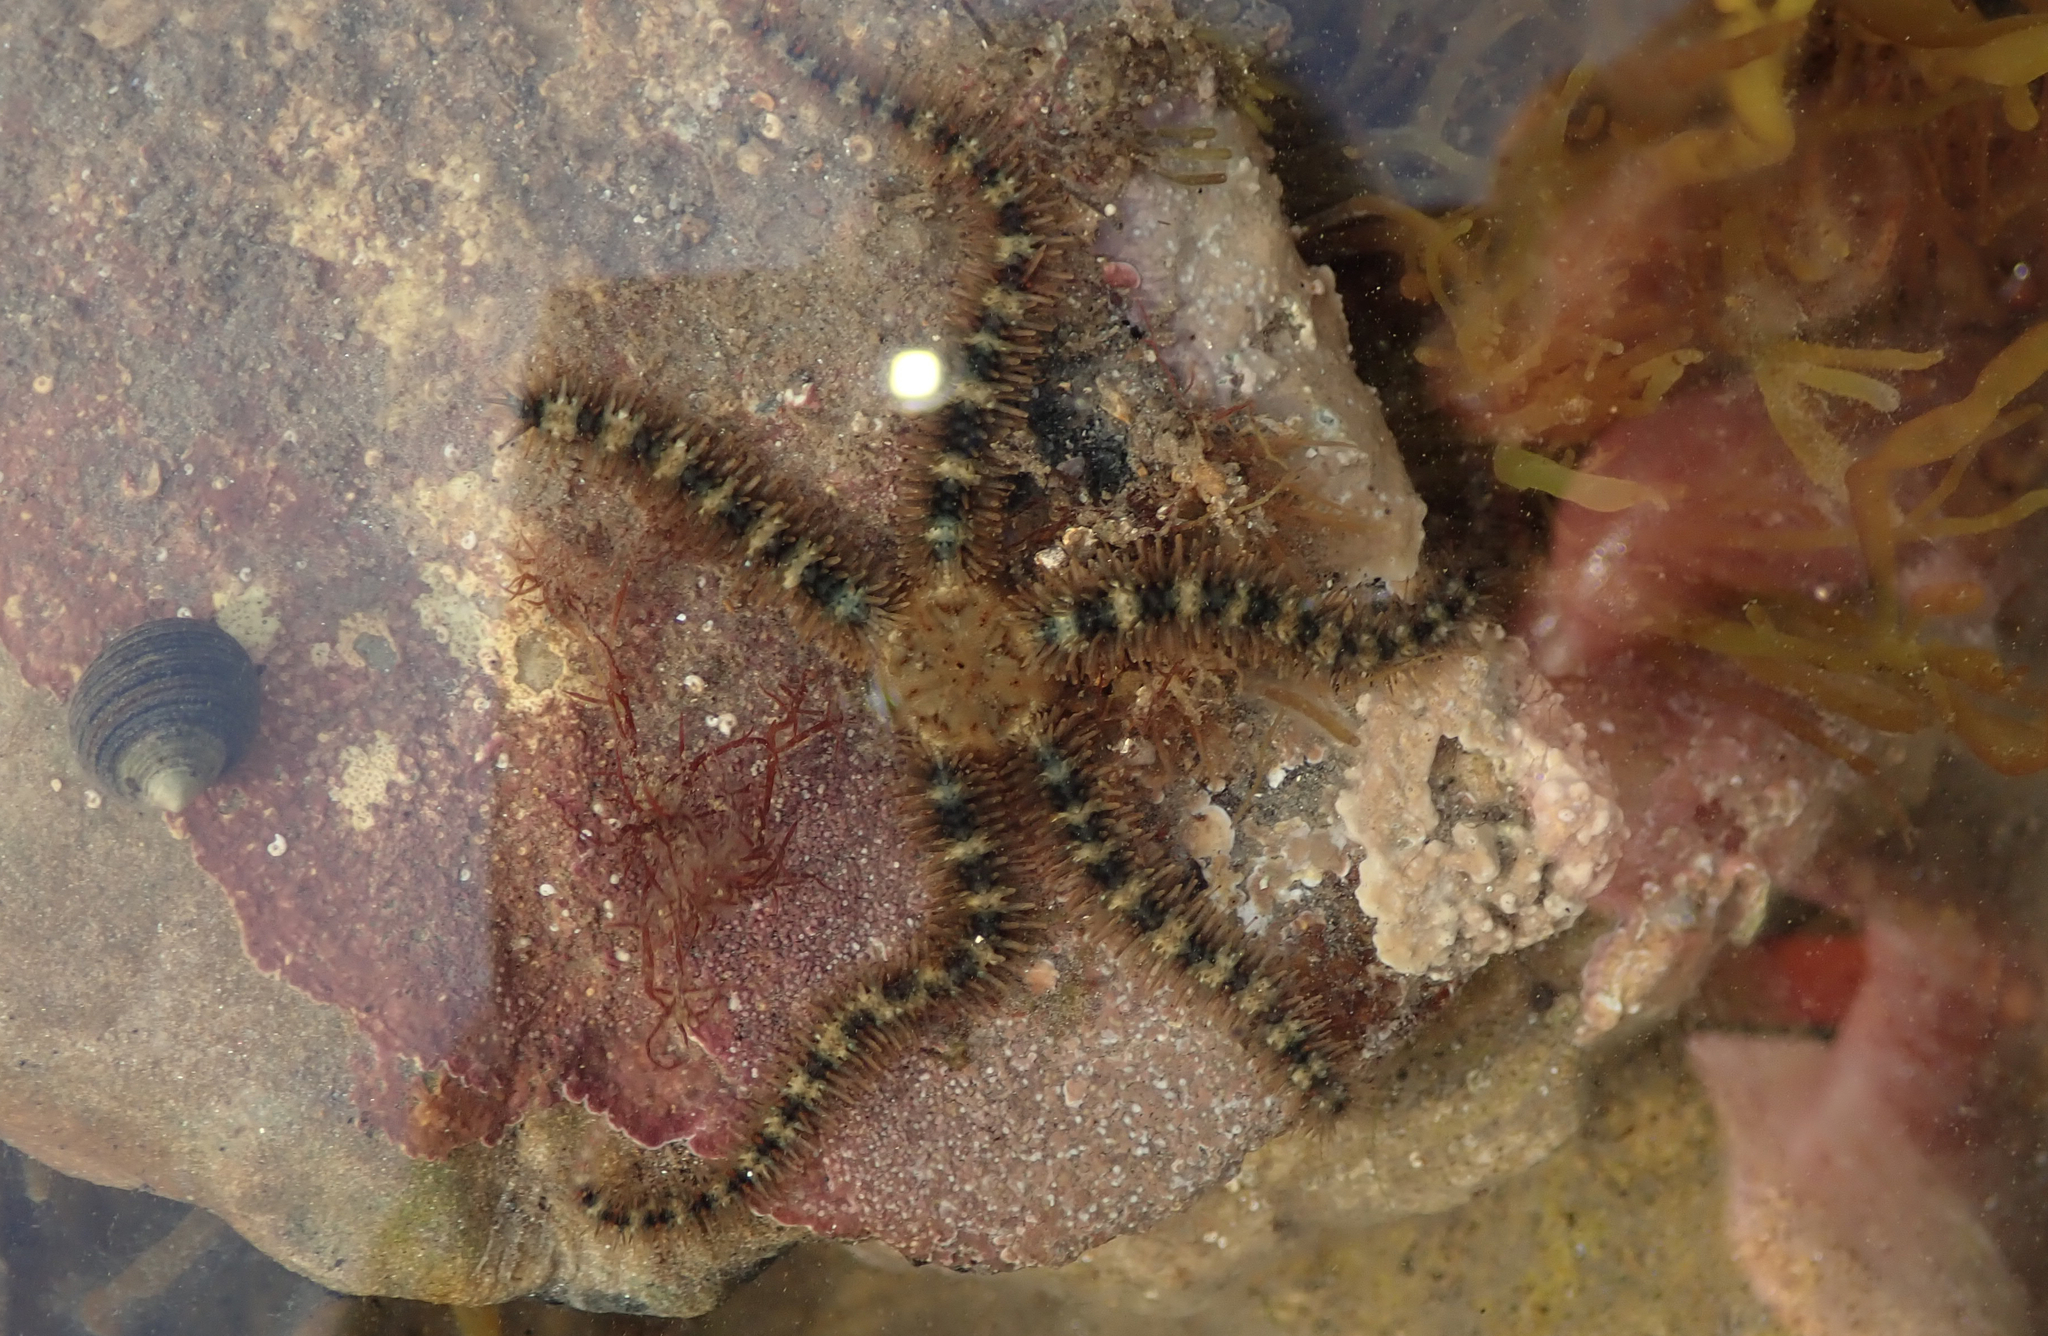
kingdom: Animalia
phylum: Echinodermata
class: Ophiuroidea
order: Amphilepidida
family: Ophiotrichidae
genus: Ophiothrix
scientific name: Ophiothrix fragilis
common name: Common brittlestar
